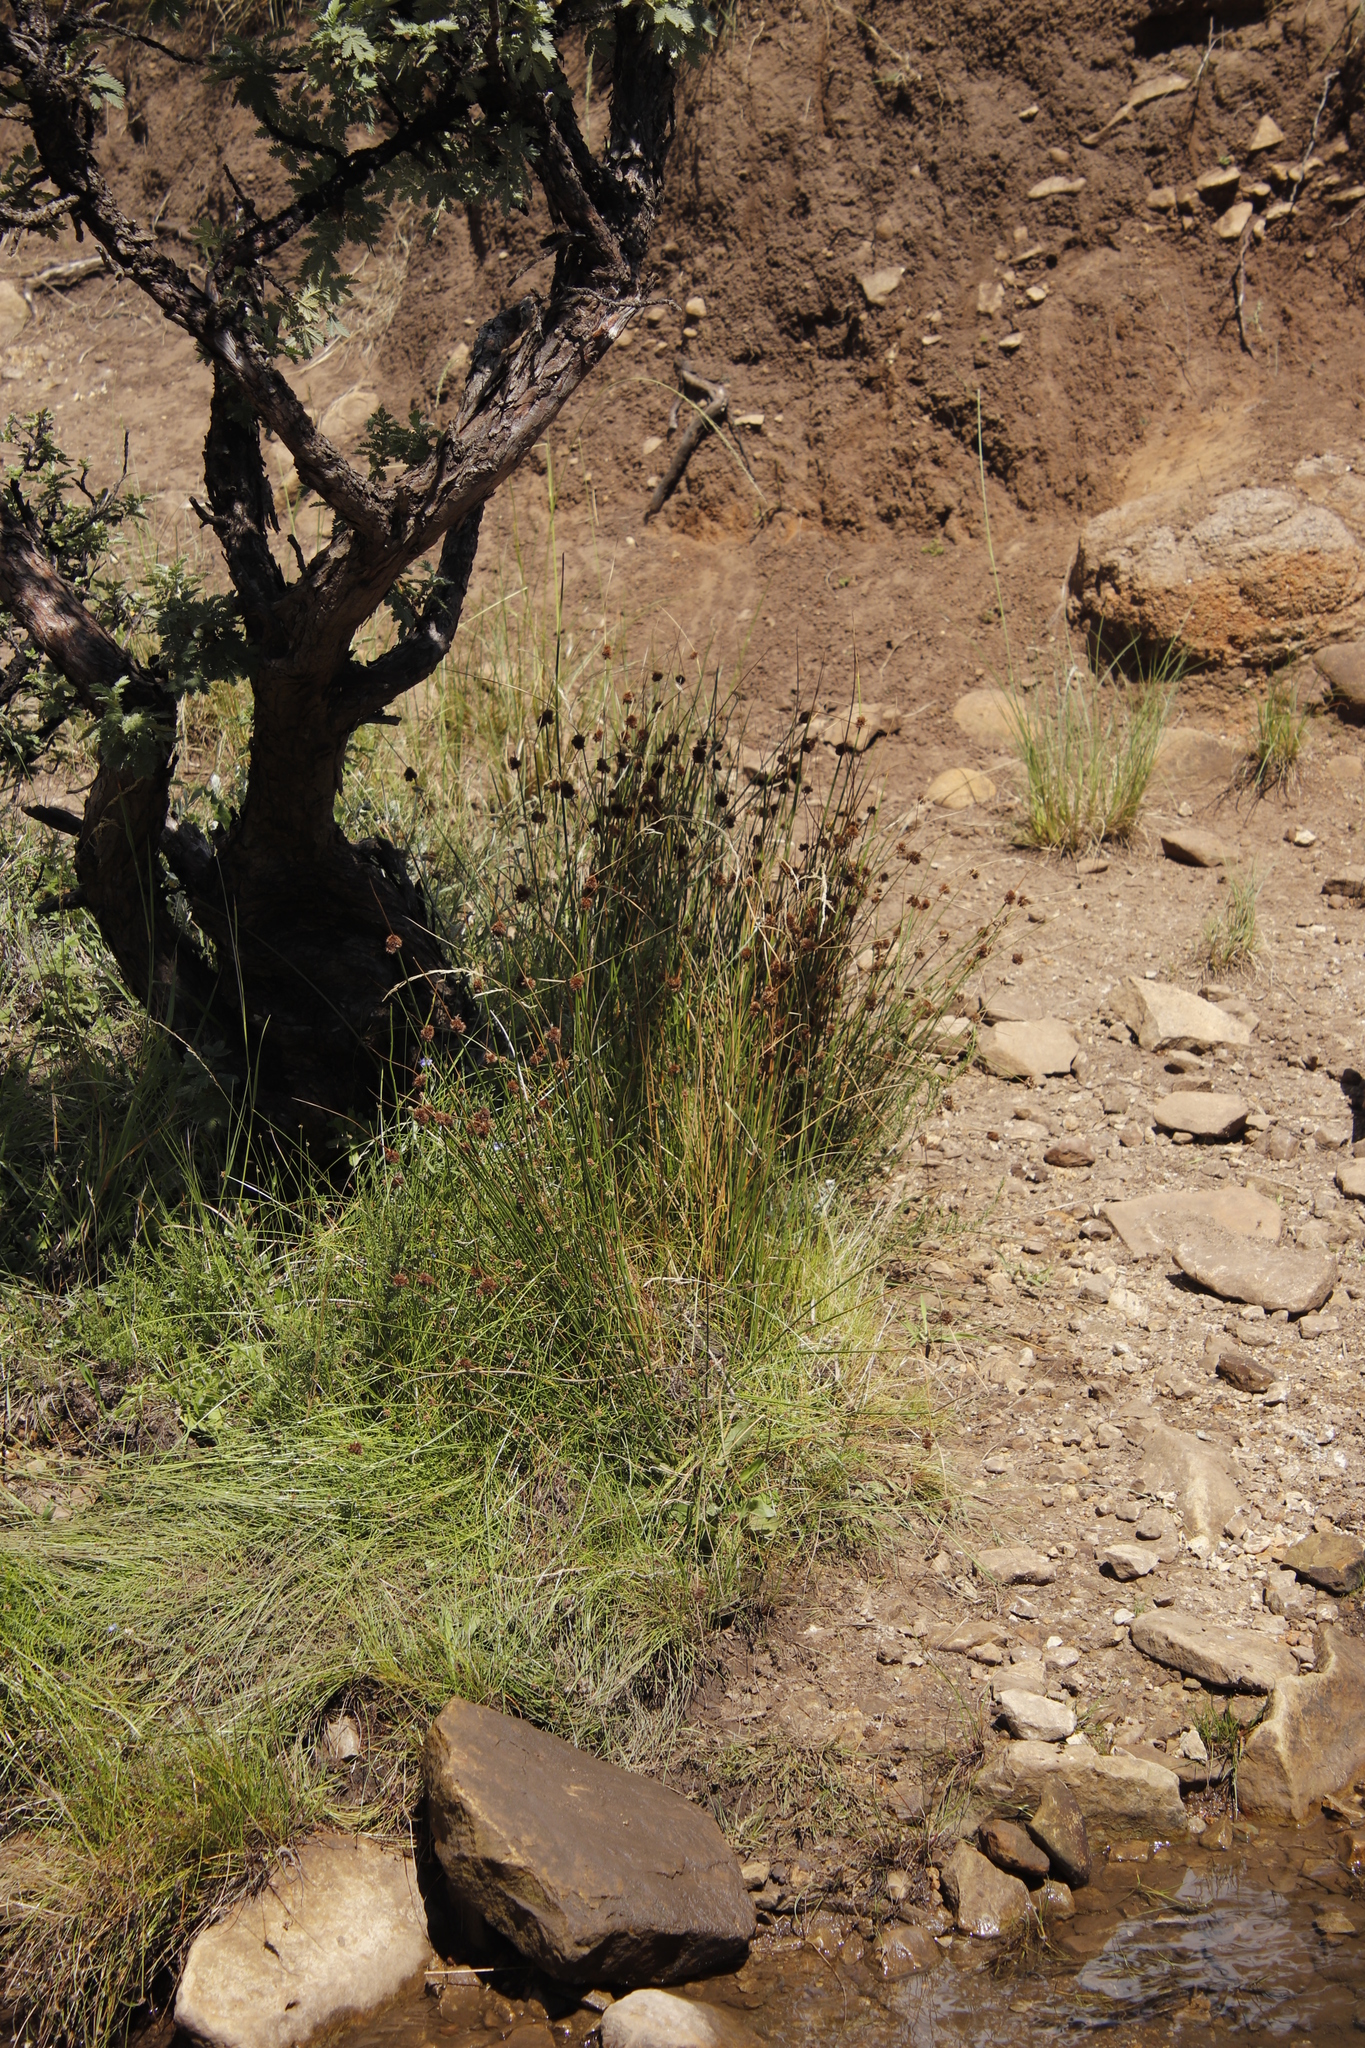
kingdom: Plantae
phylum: Tracheophyta
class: Liliopsida
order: Poales
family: Juncaceae
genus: Juncus
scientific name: Juncus effusus
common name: Soft rush
